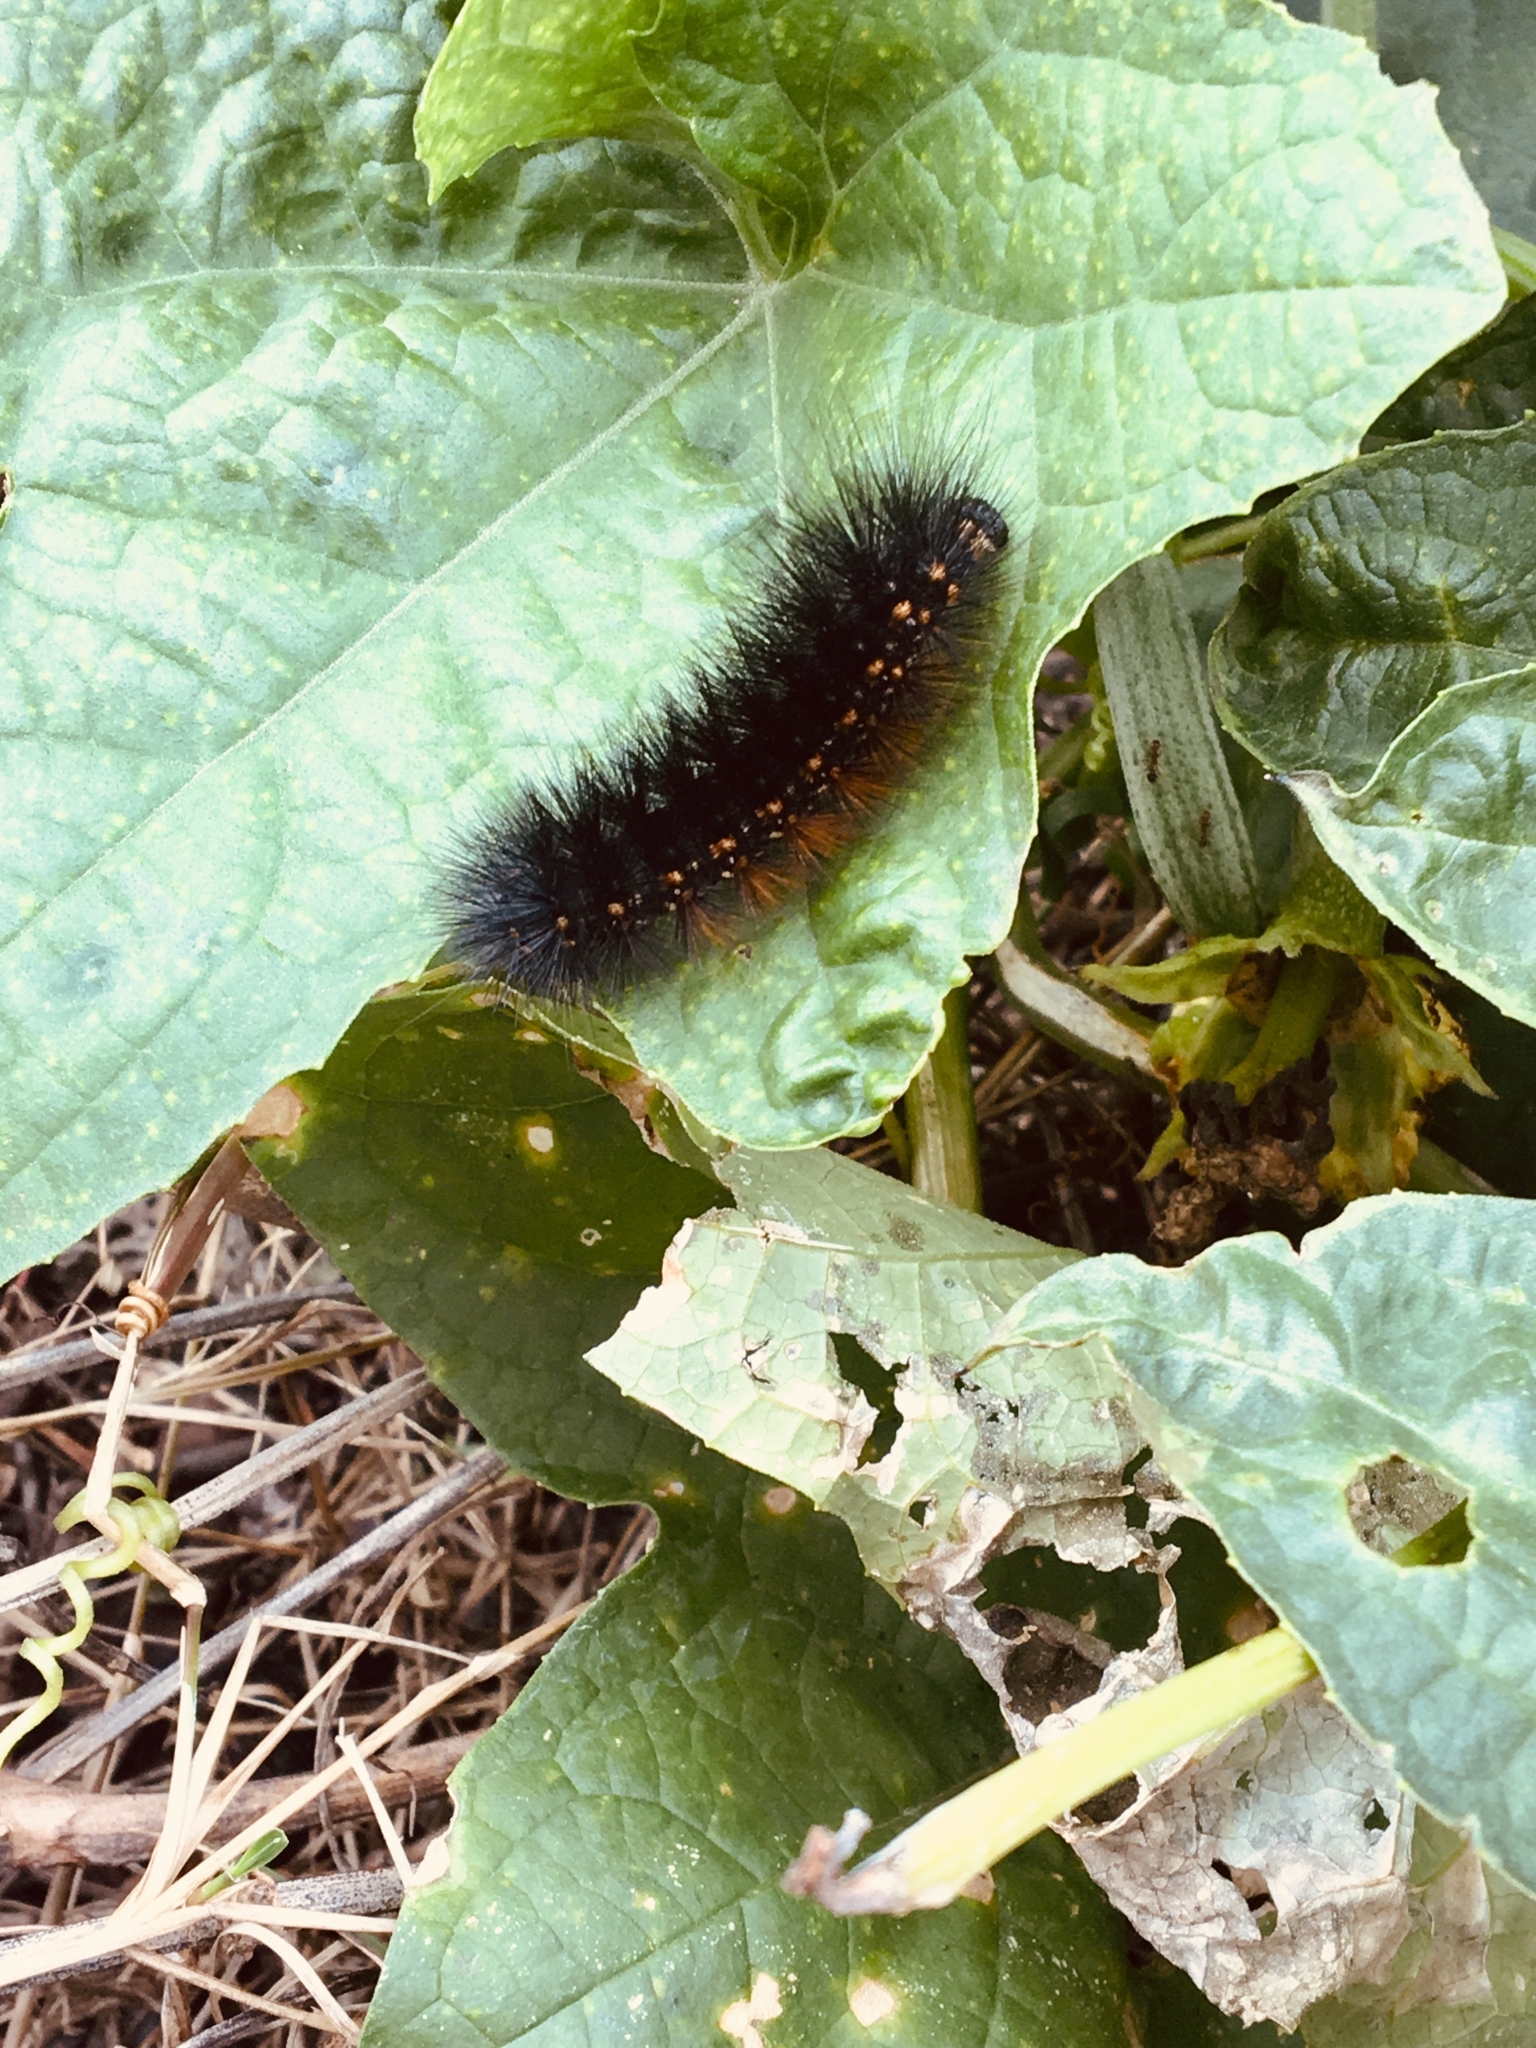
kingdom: Animalia
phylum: Arthropoda
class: Insecta
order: Lepidoptera
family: Erebidae
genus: Estigmene
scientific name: Estigmene acrea
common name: Salt marsh moth
